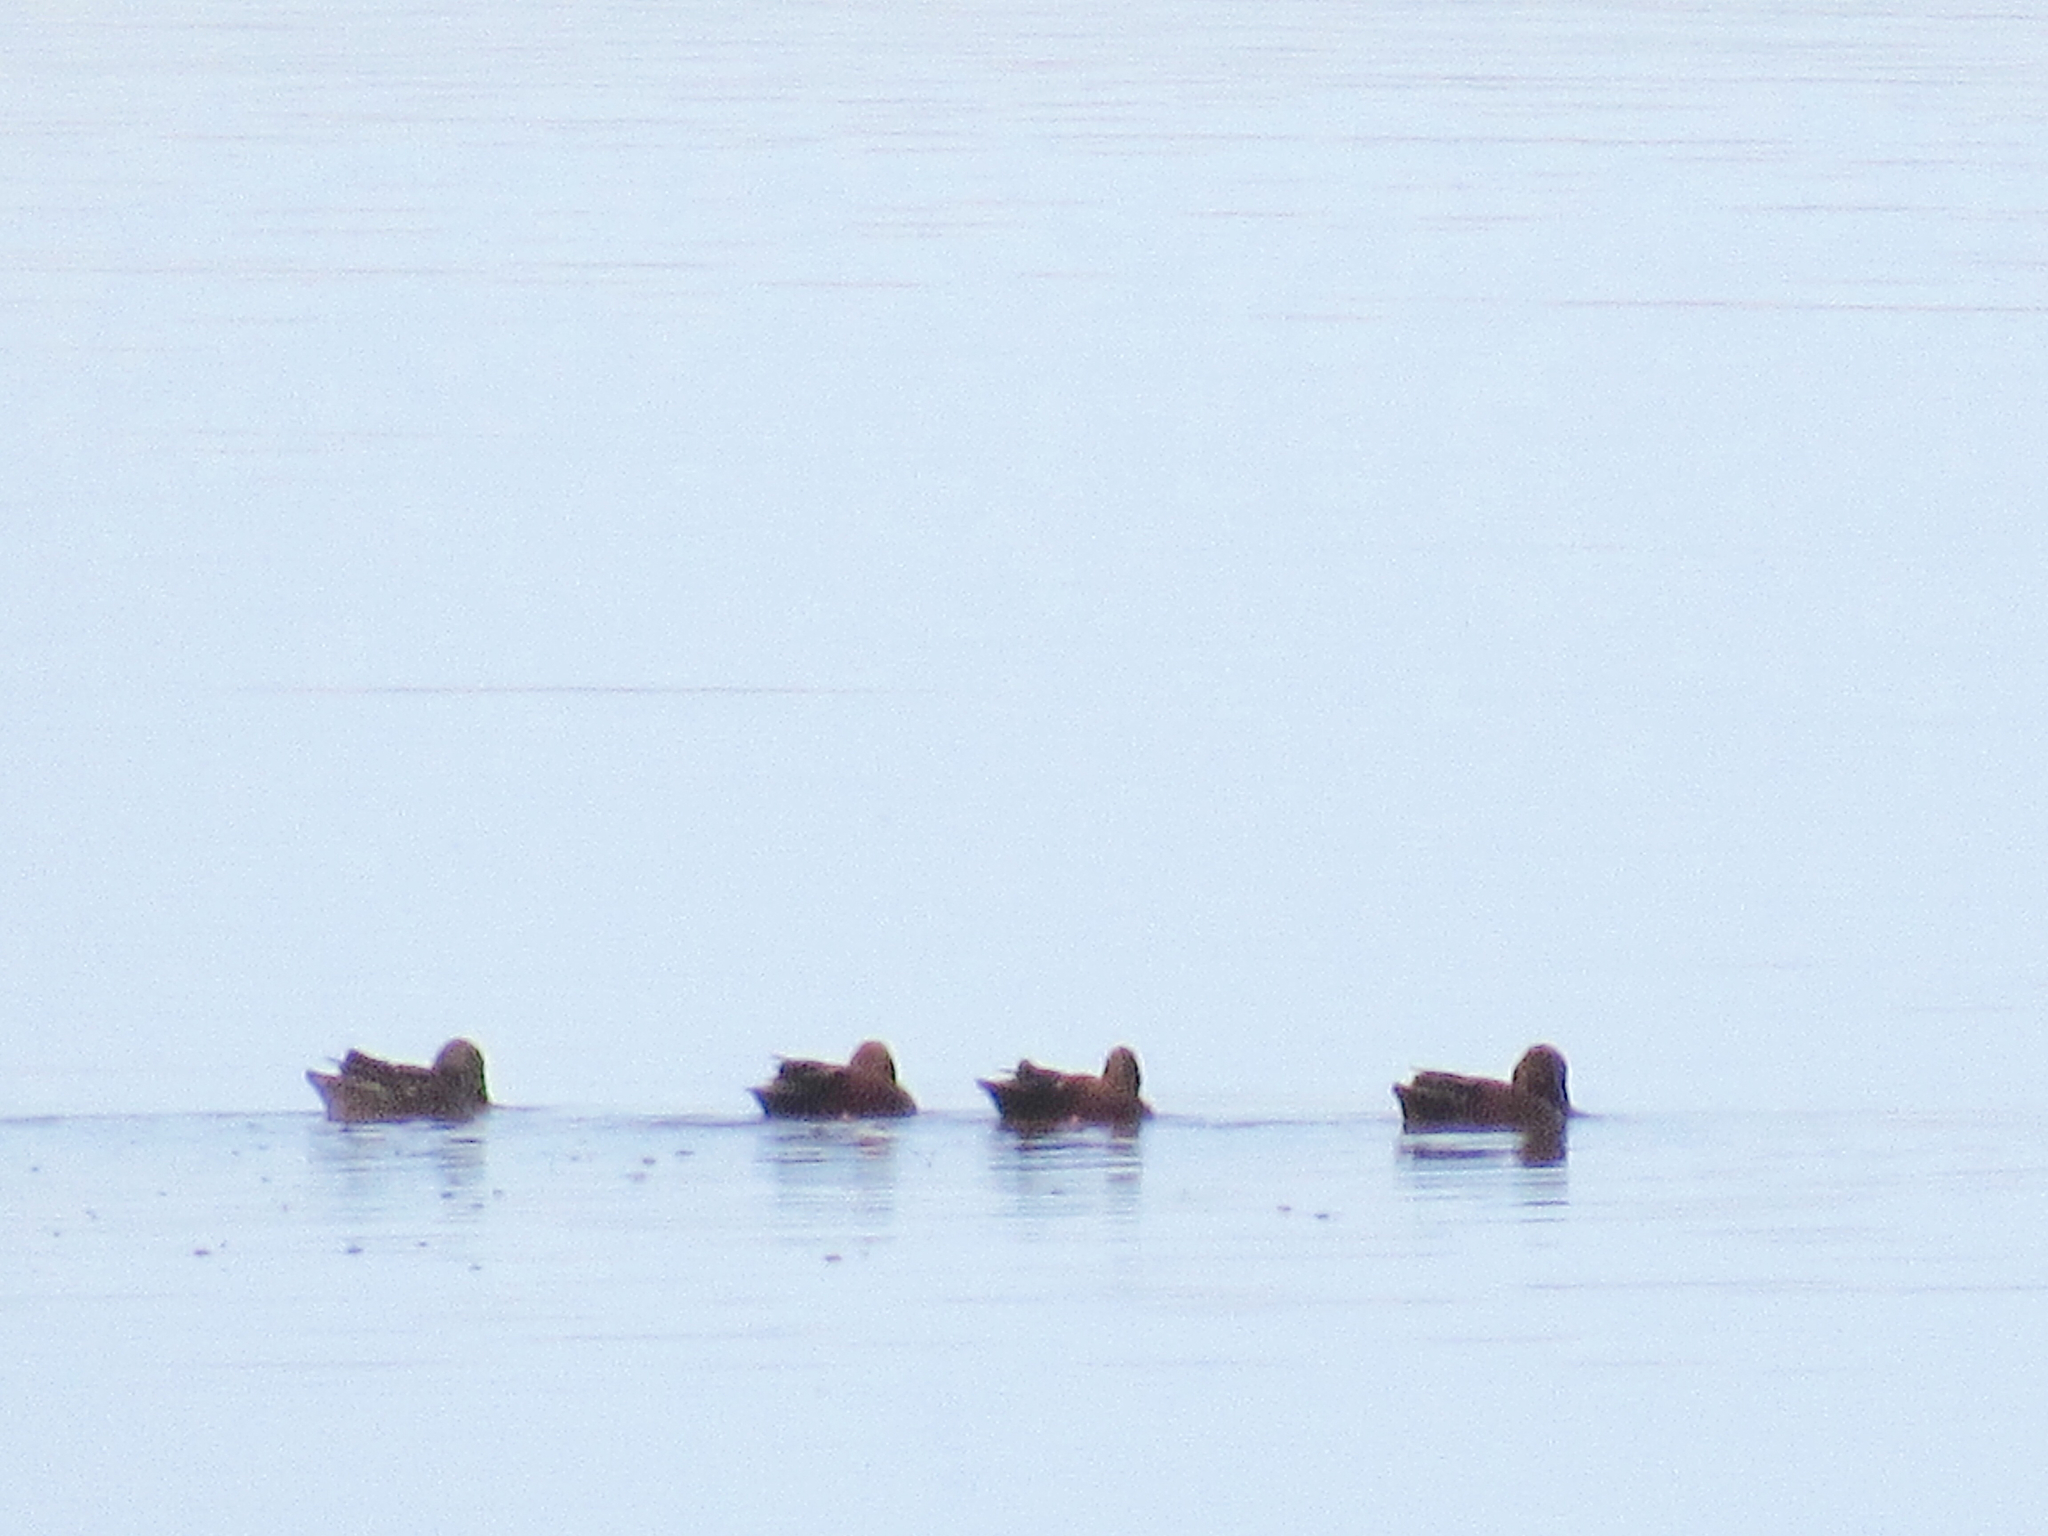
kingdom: Animalia
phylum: Chordata
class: Aves
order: Anseriformes
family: Anatidae
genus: Spatula
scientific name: Spatula cyanoptera
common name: Cinnamon teal
